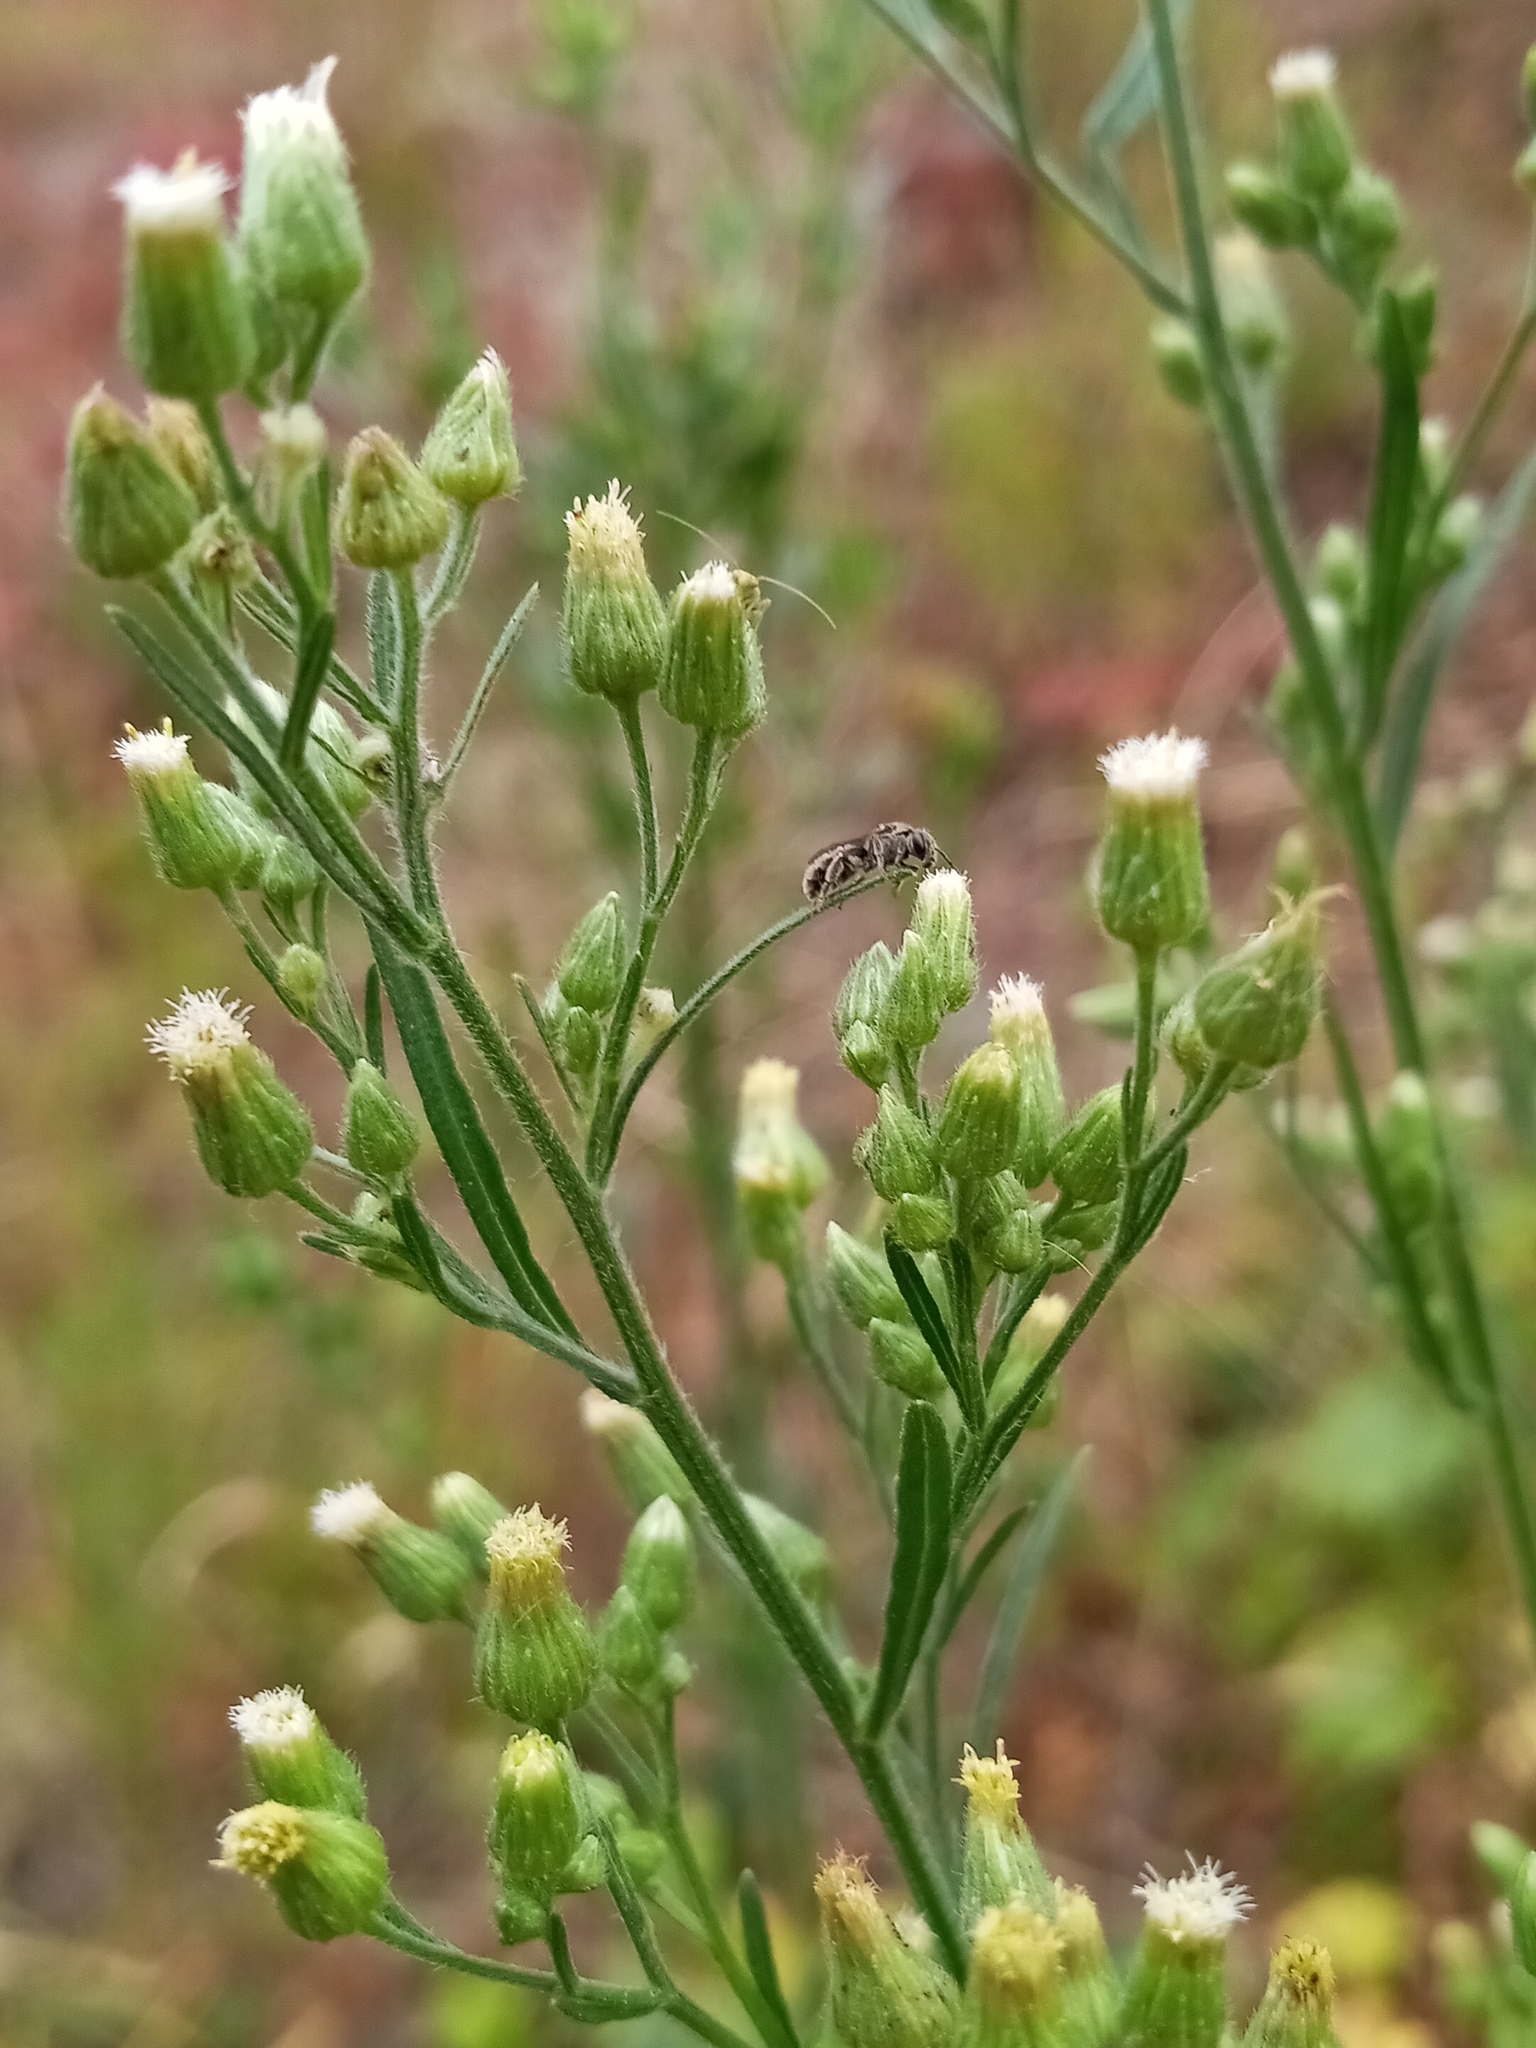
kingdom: Plantae
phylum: Tracheophyta
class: Magnoliopsida
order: Asterales
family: Asteraceae
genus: Erigeron
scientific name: Erigeron sumatrensis
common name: Daisy
